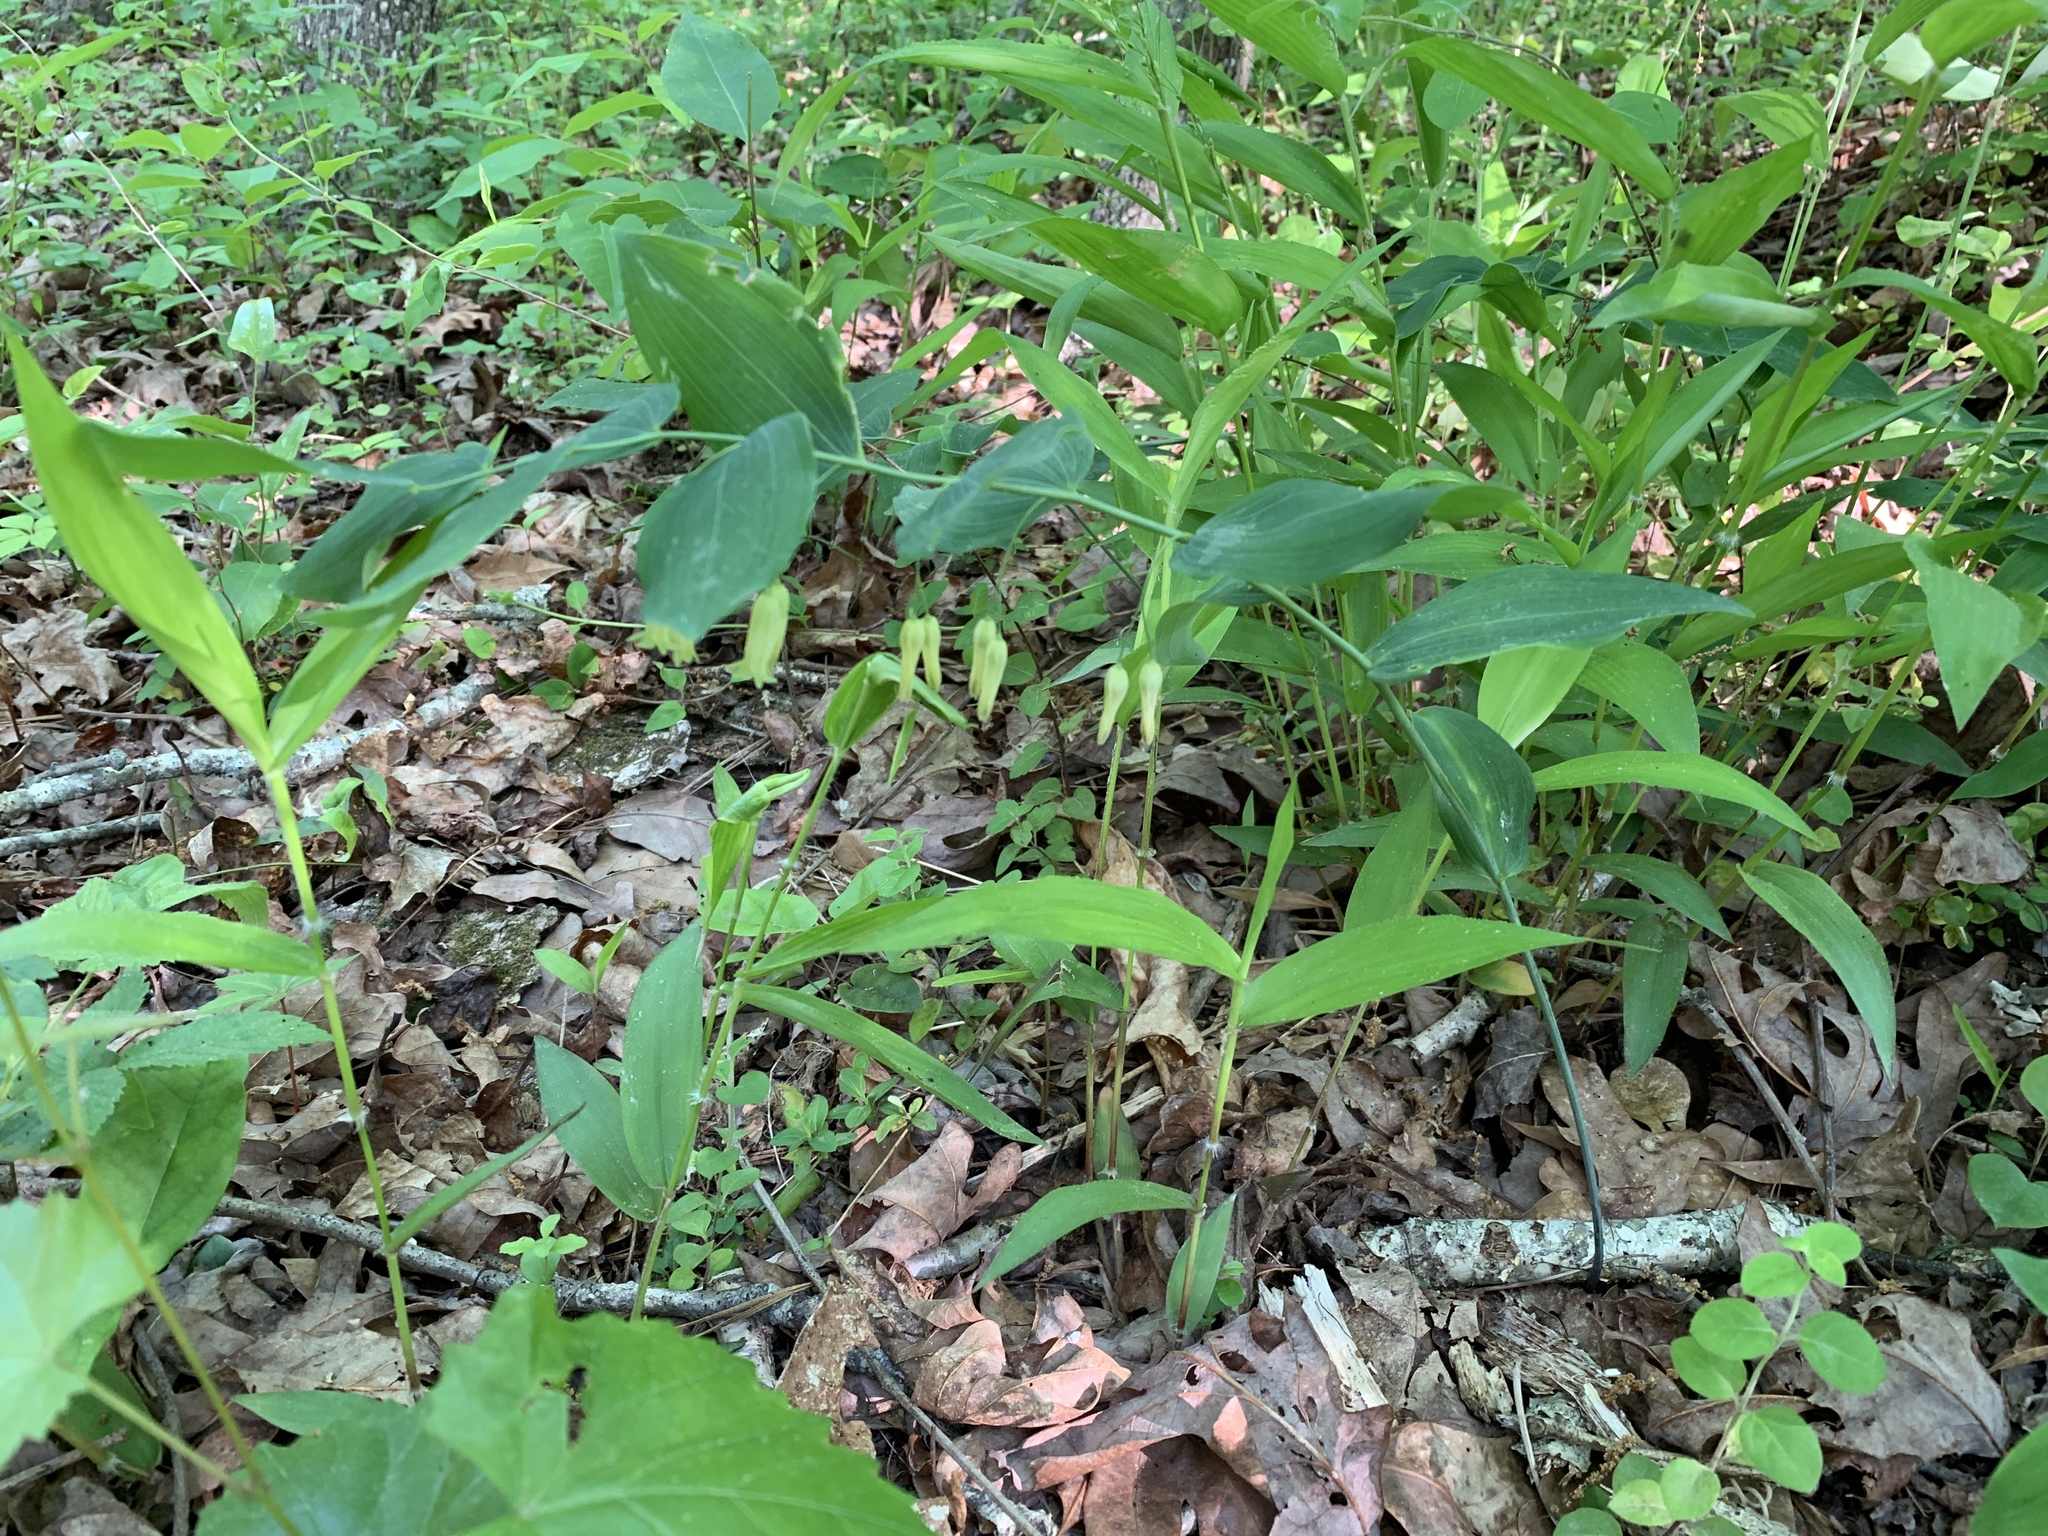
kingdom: Plantae
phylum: Tracheophyta
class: Liliopsida
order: Asparagales
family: Asparagaceae
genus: Polygonatum
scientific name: Polygonatum biflorum
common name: American solomon's-seal
